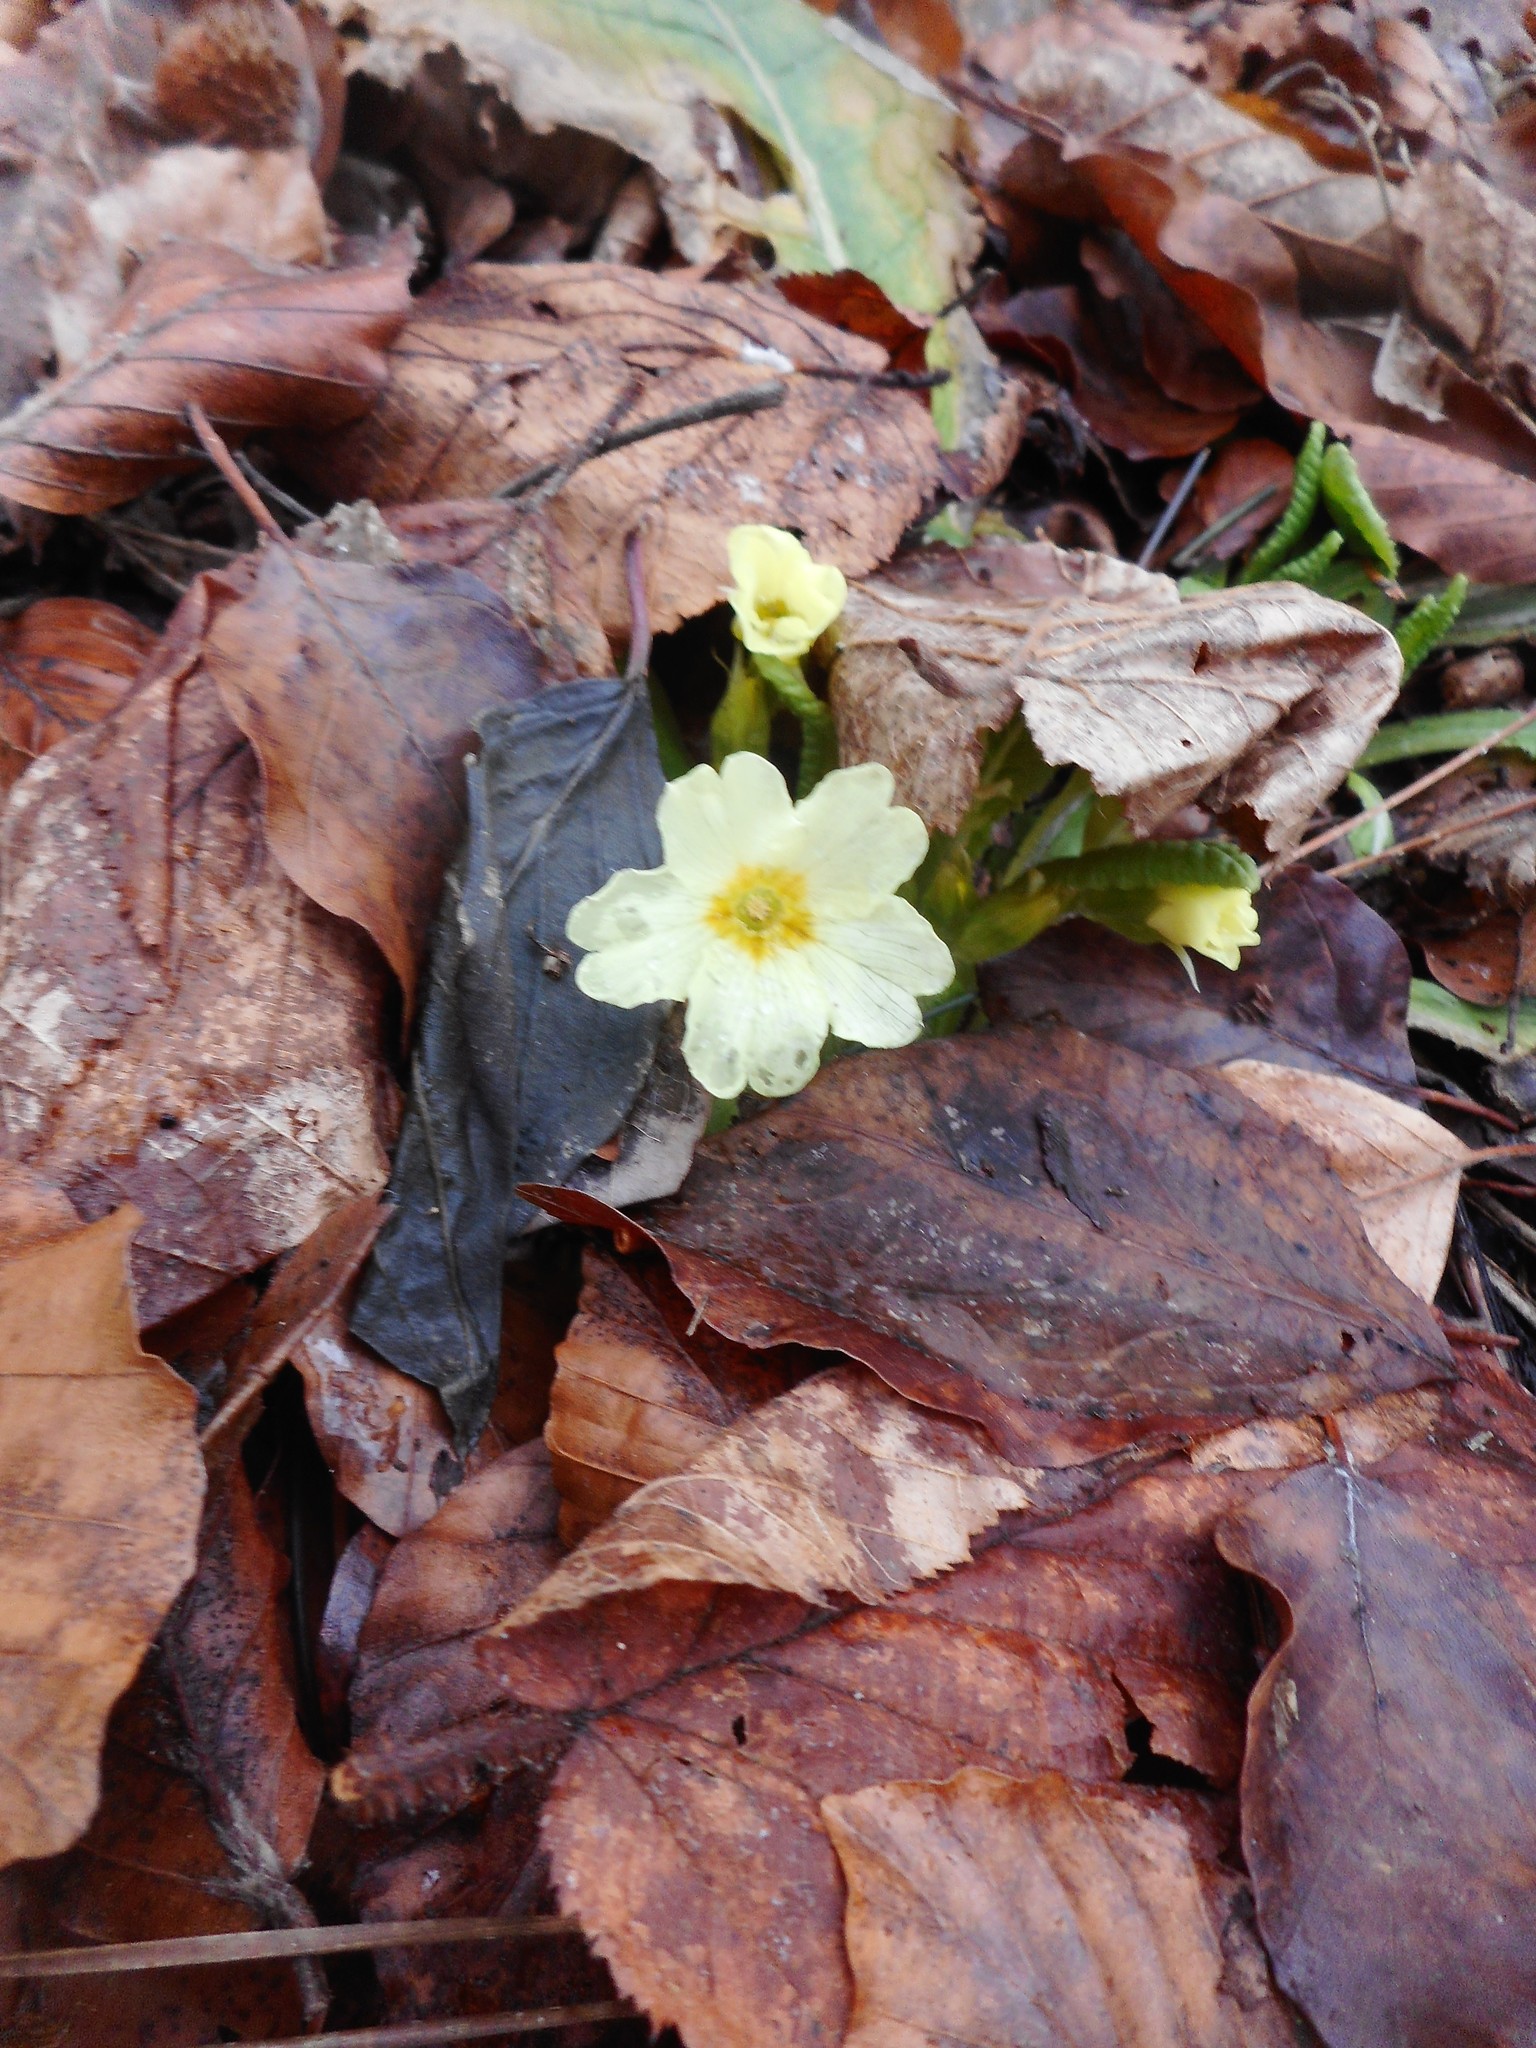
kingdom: Plantae
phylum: Tracheophyta
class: Magnoliopsida
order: Ericales
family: Primulaceae
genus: Primula
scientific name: Primula vulgaris
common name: Primrose
